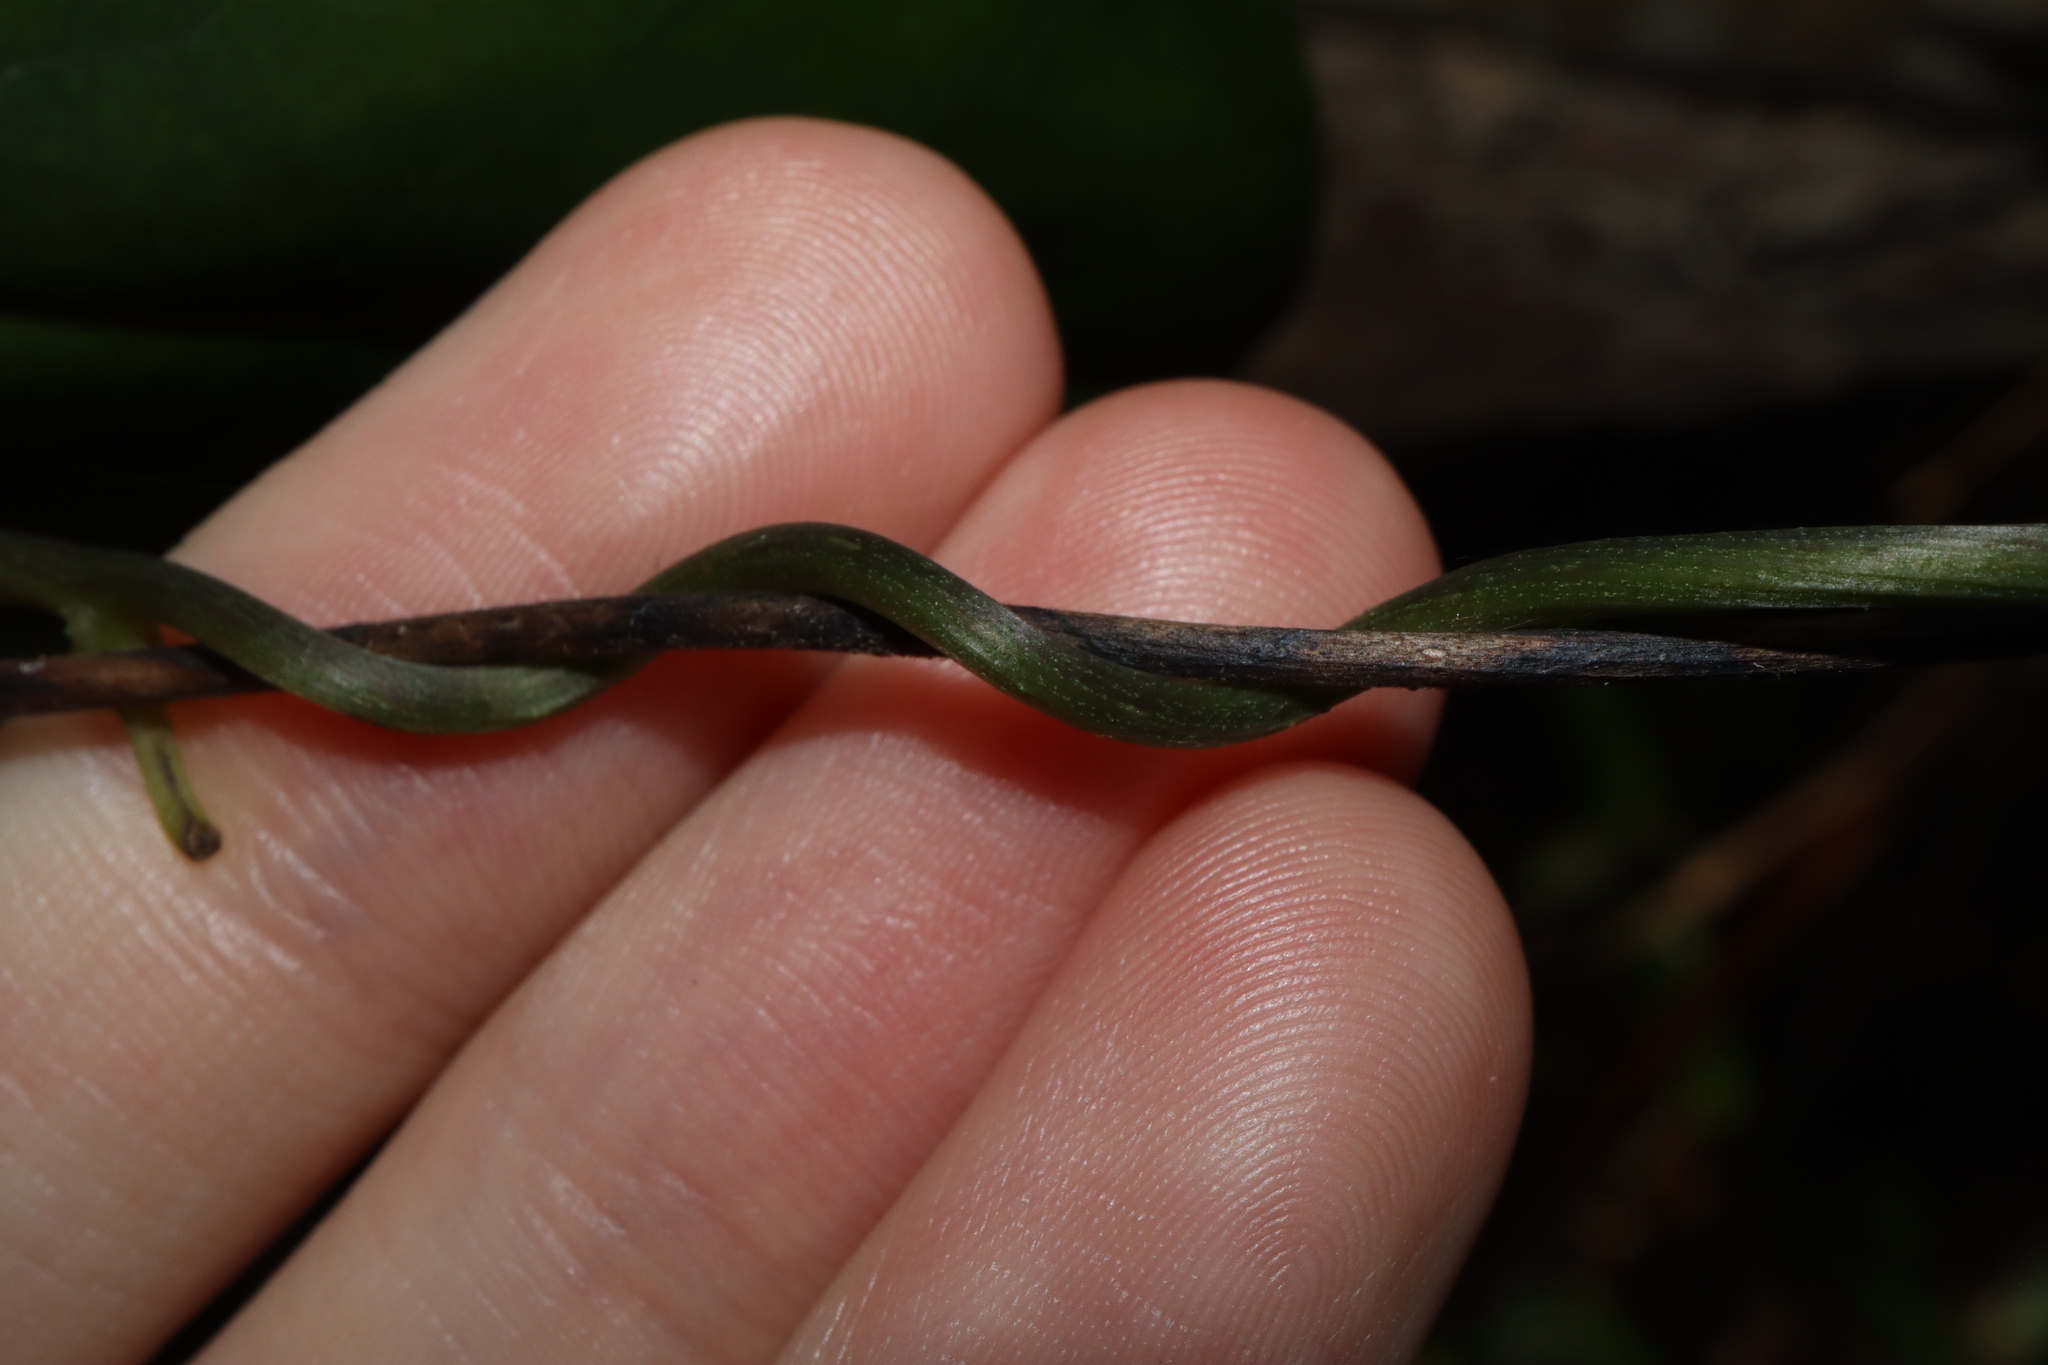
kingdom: Plantae
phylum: Tracheophyta
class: Liliopsida
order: Dioscoreales
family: Dioscoreaceae
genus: Dioscorea
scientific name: Dioscorea transversa
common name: Long yam
